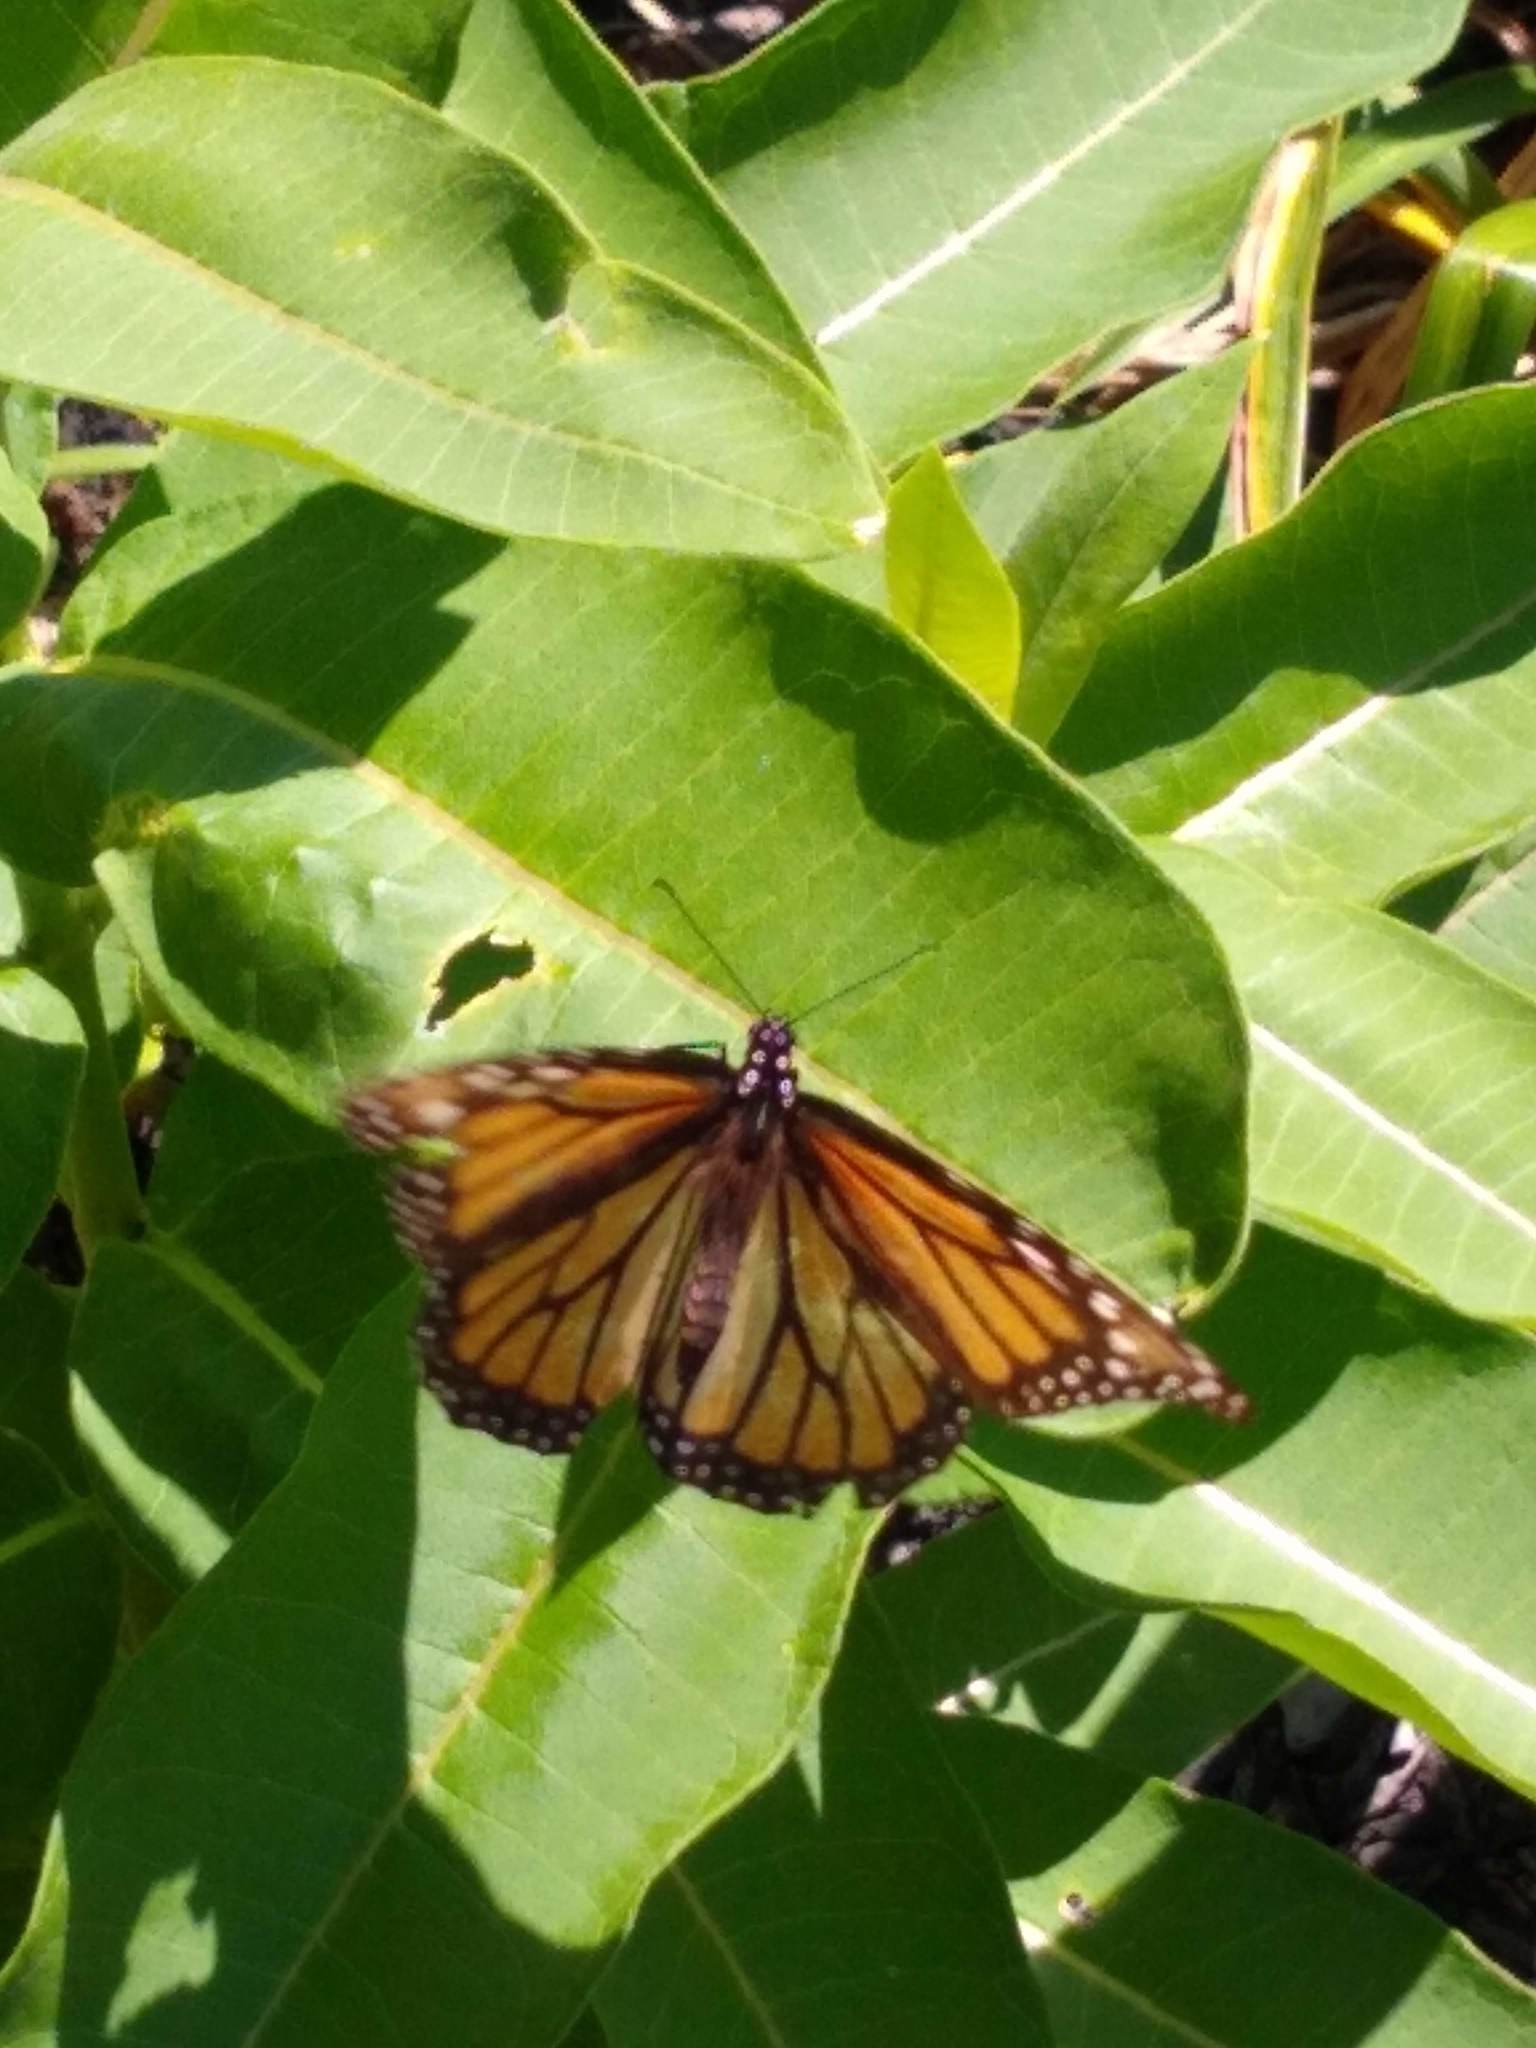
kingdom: Animalia
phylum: Arthropoda
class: Insecta
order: Lepidoptera
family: Nymphalidae
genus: Danaus
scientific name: Danaus plexippus
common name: Monarch
